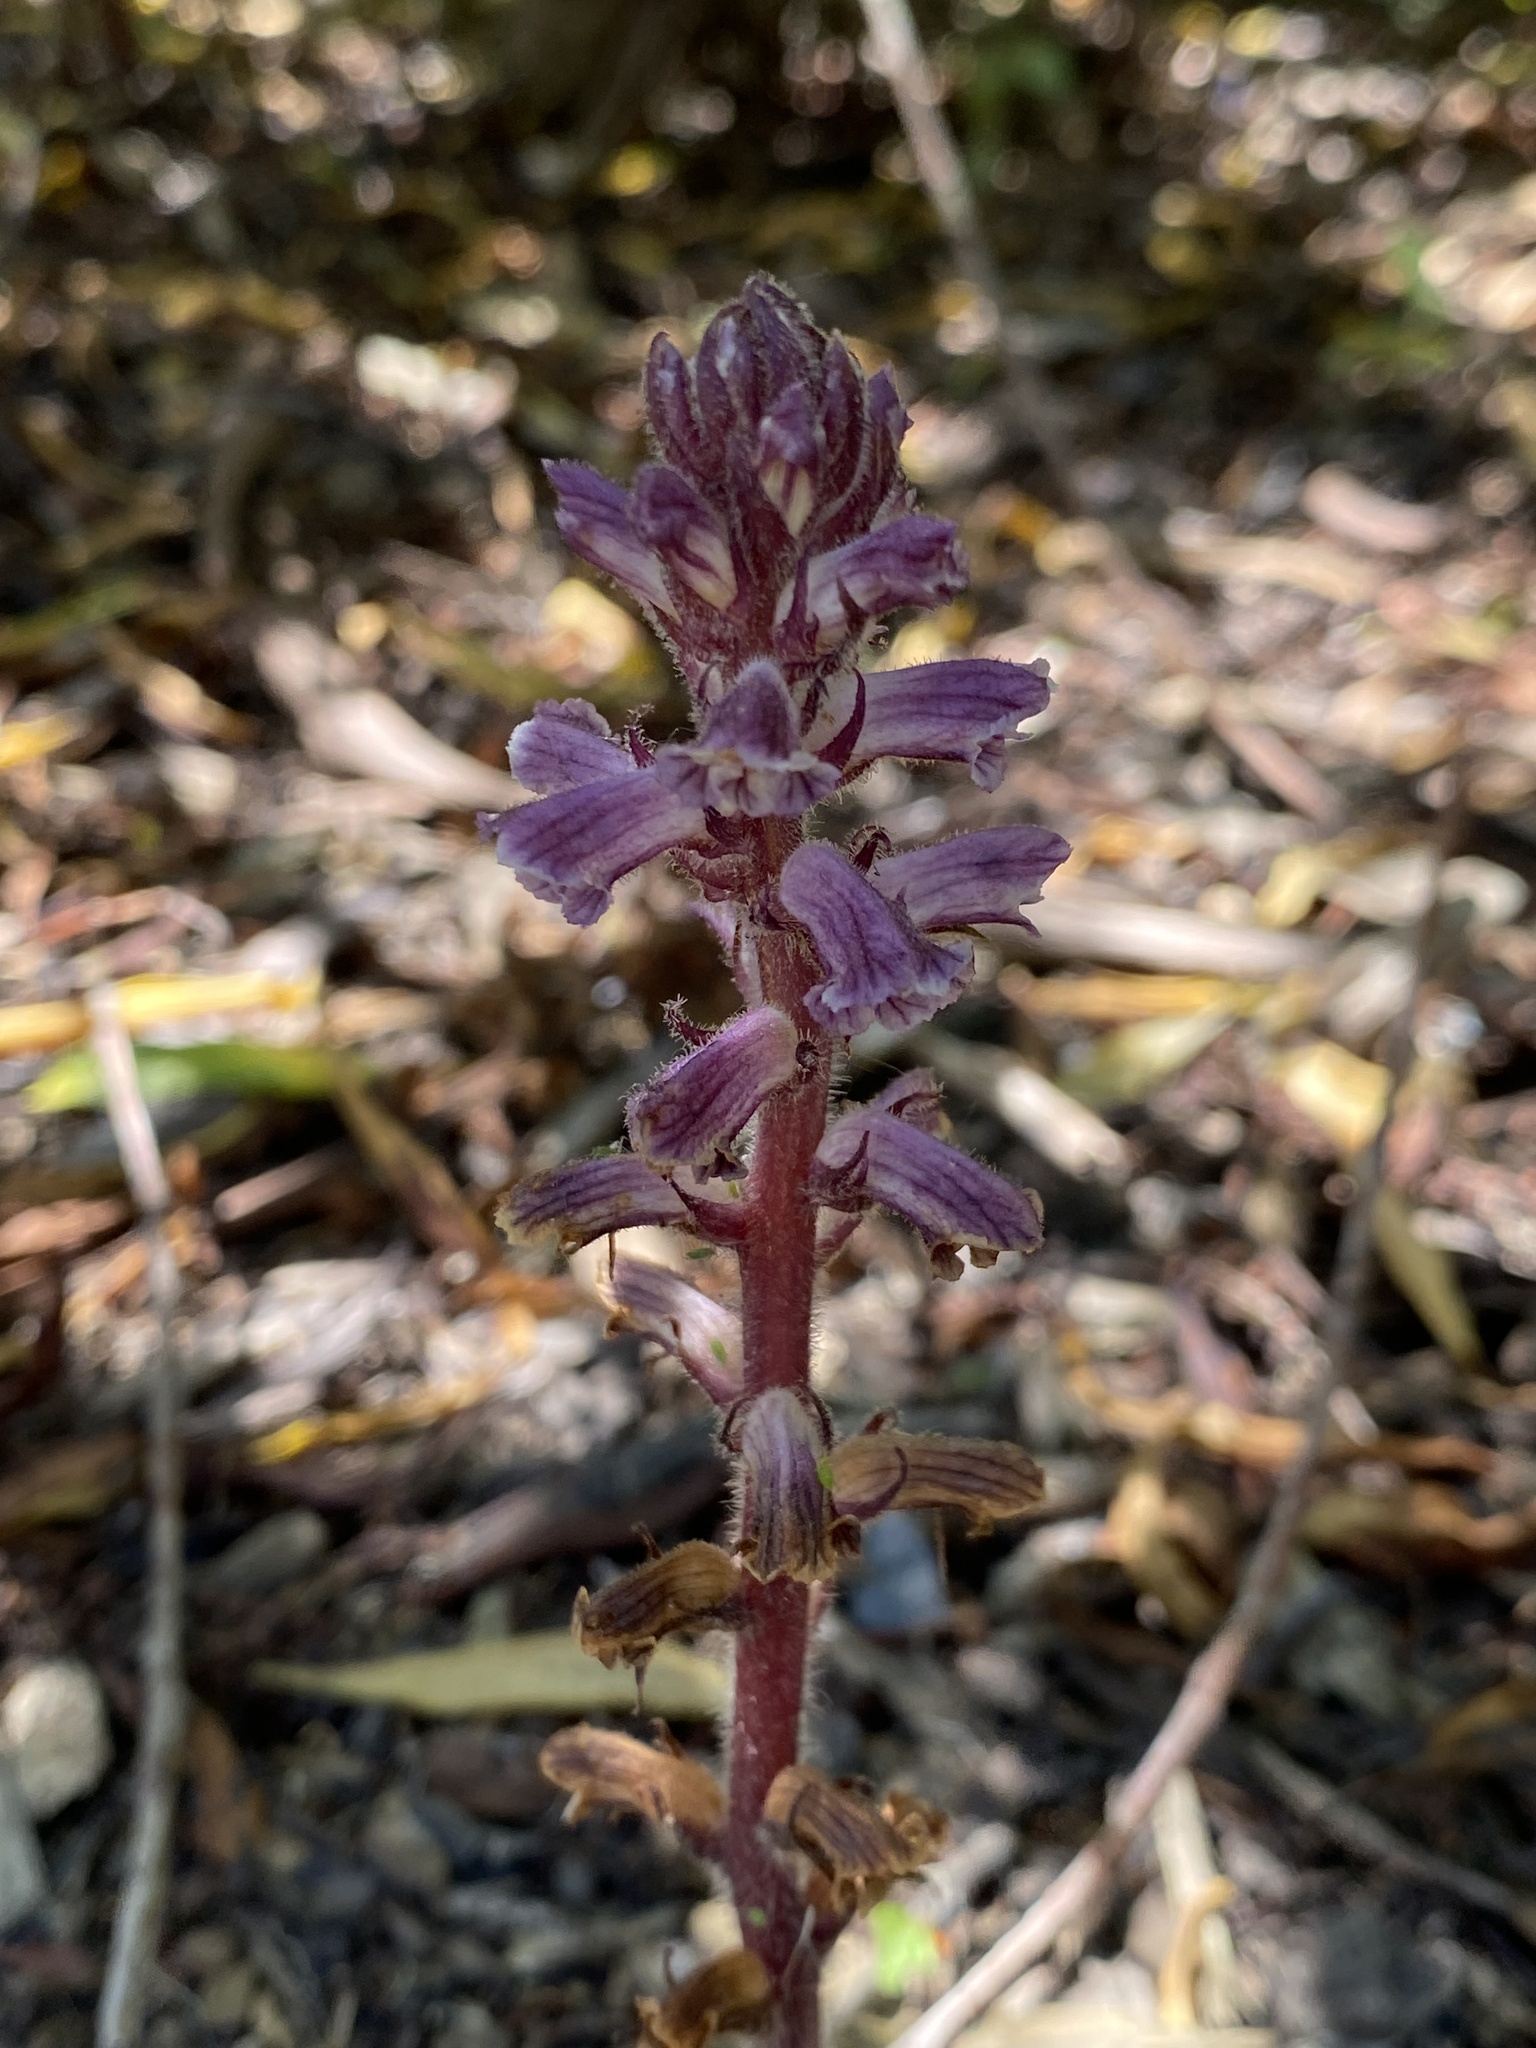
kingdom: Plantae
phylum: Tracheophyta
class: Magnoliopsida
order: Lamiales
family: Orobanchaceae
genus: Orobanche
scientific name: Orobanche minor
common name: Common broomrape
